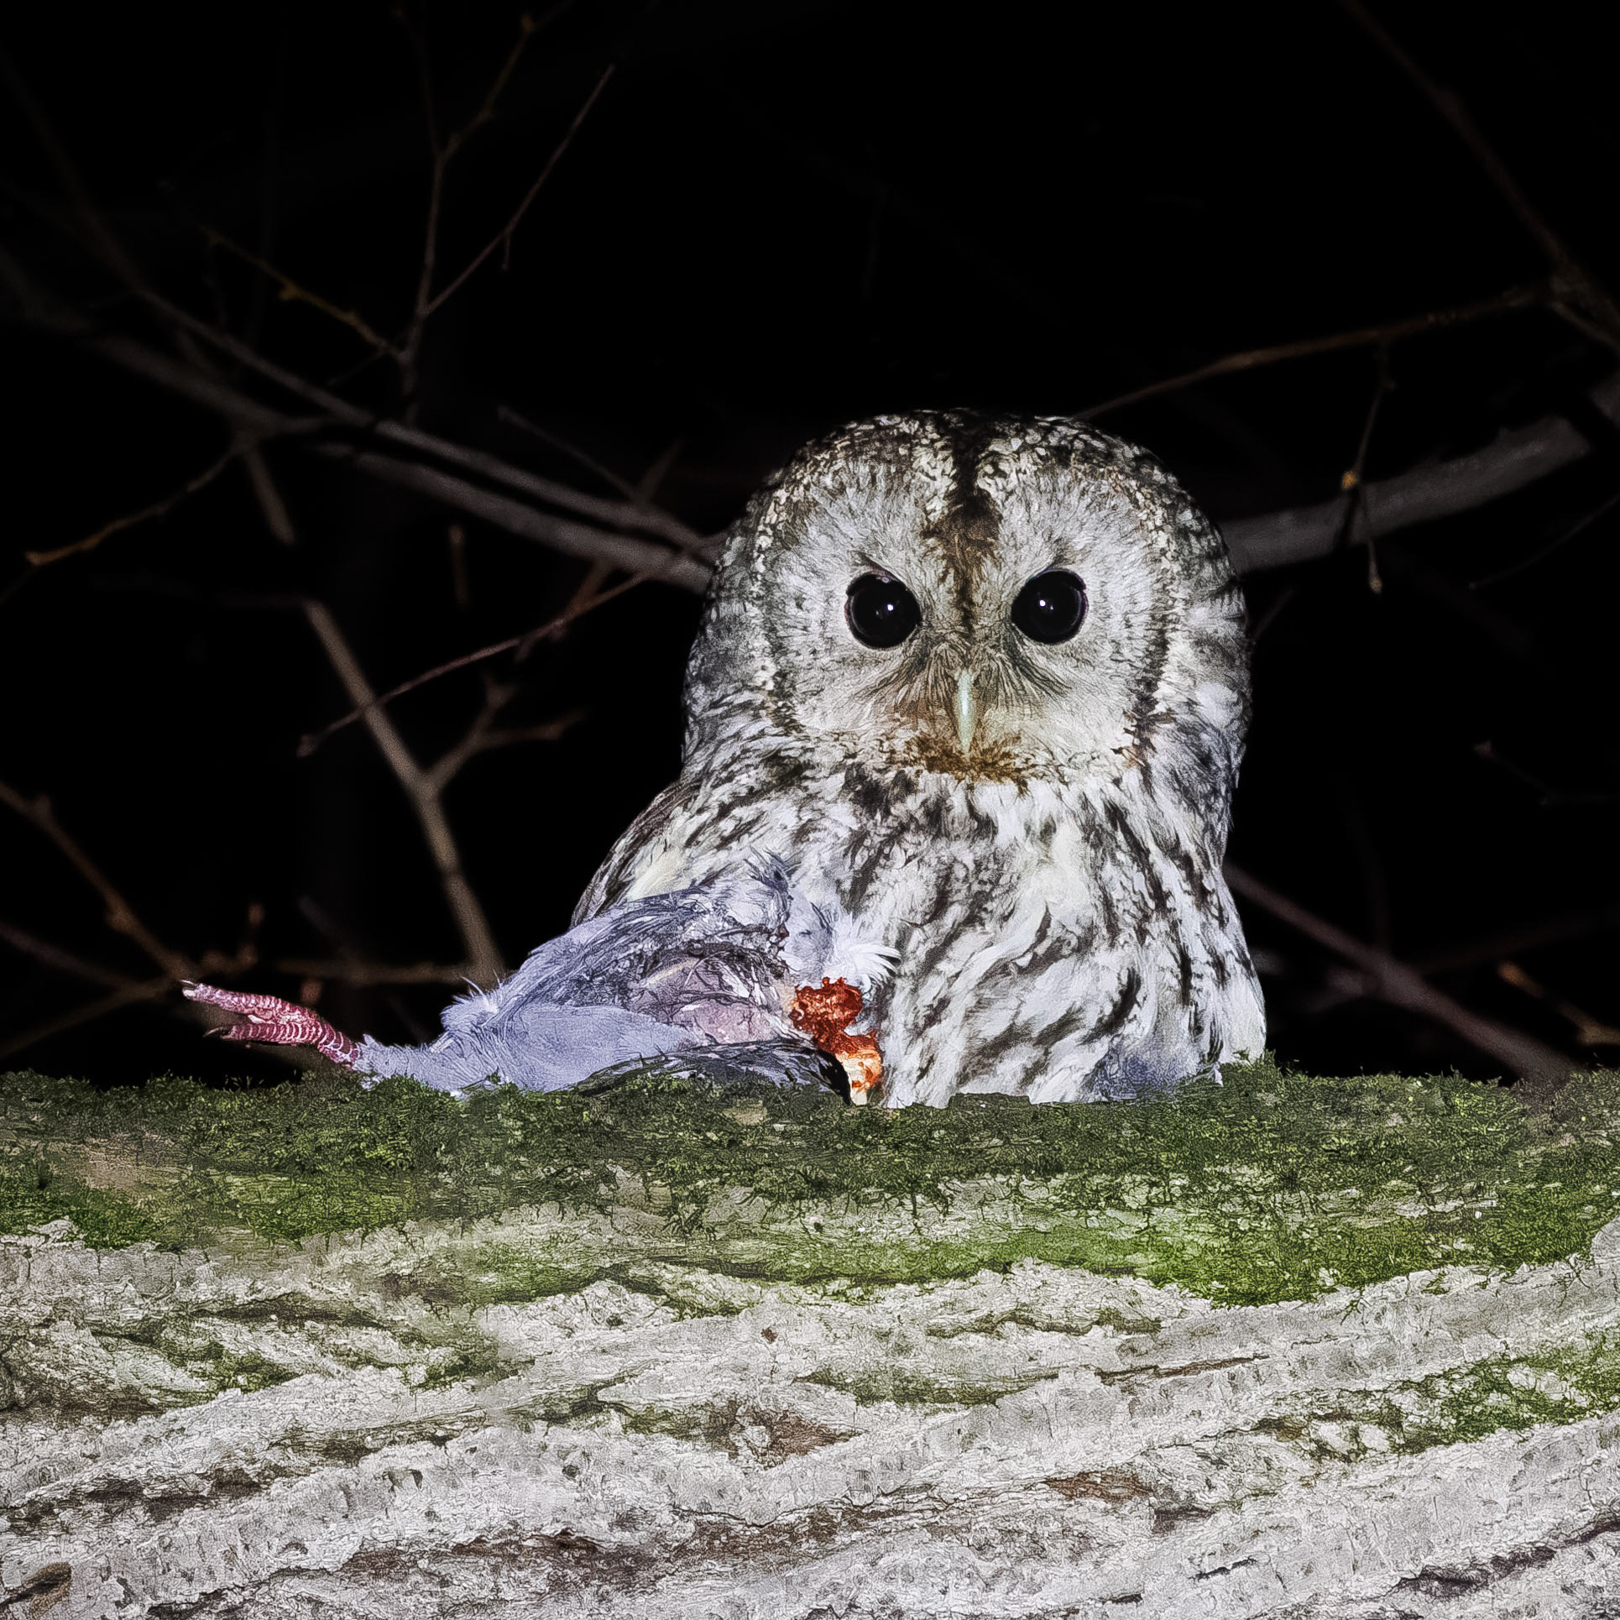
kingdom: Animalia
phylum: Chordata
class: Aves
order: Strigiformes
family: Strigidae
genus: Strix
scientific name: Strix aluco
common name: Tawny owl
